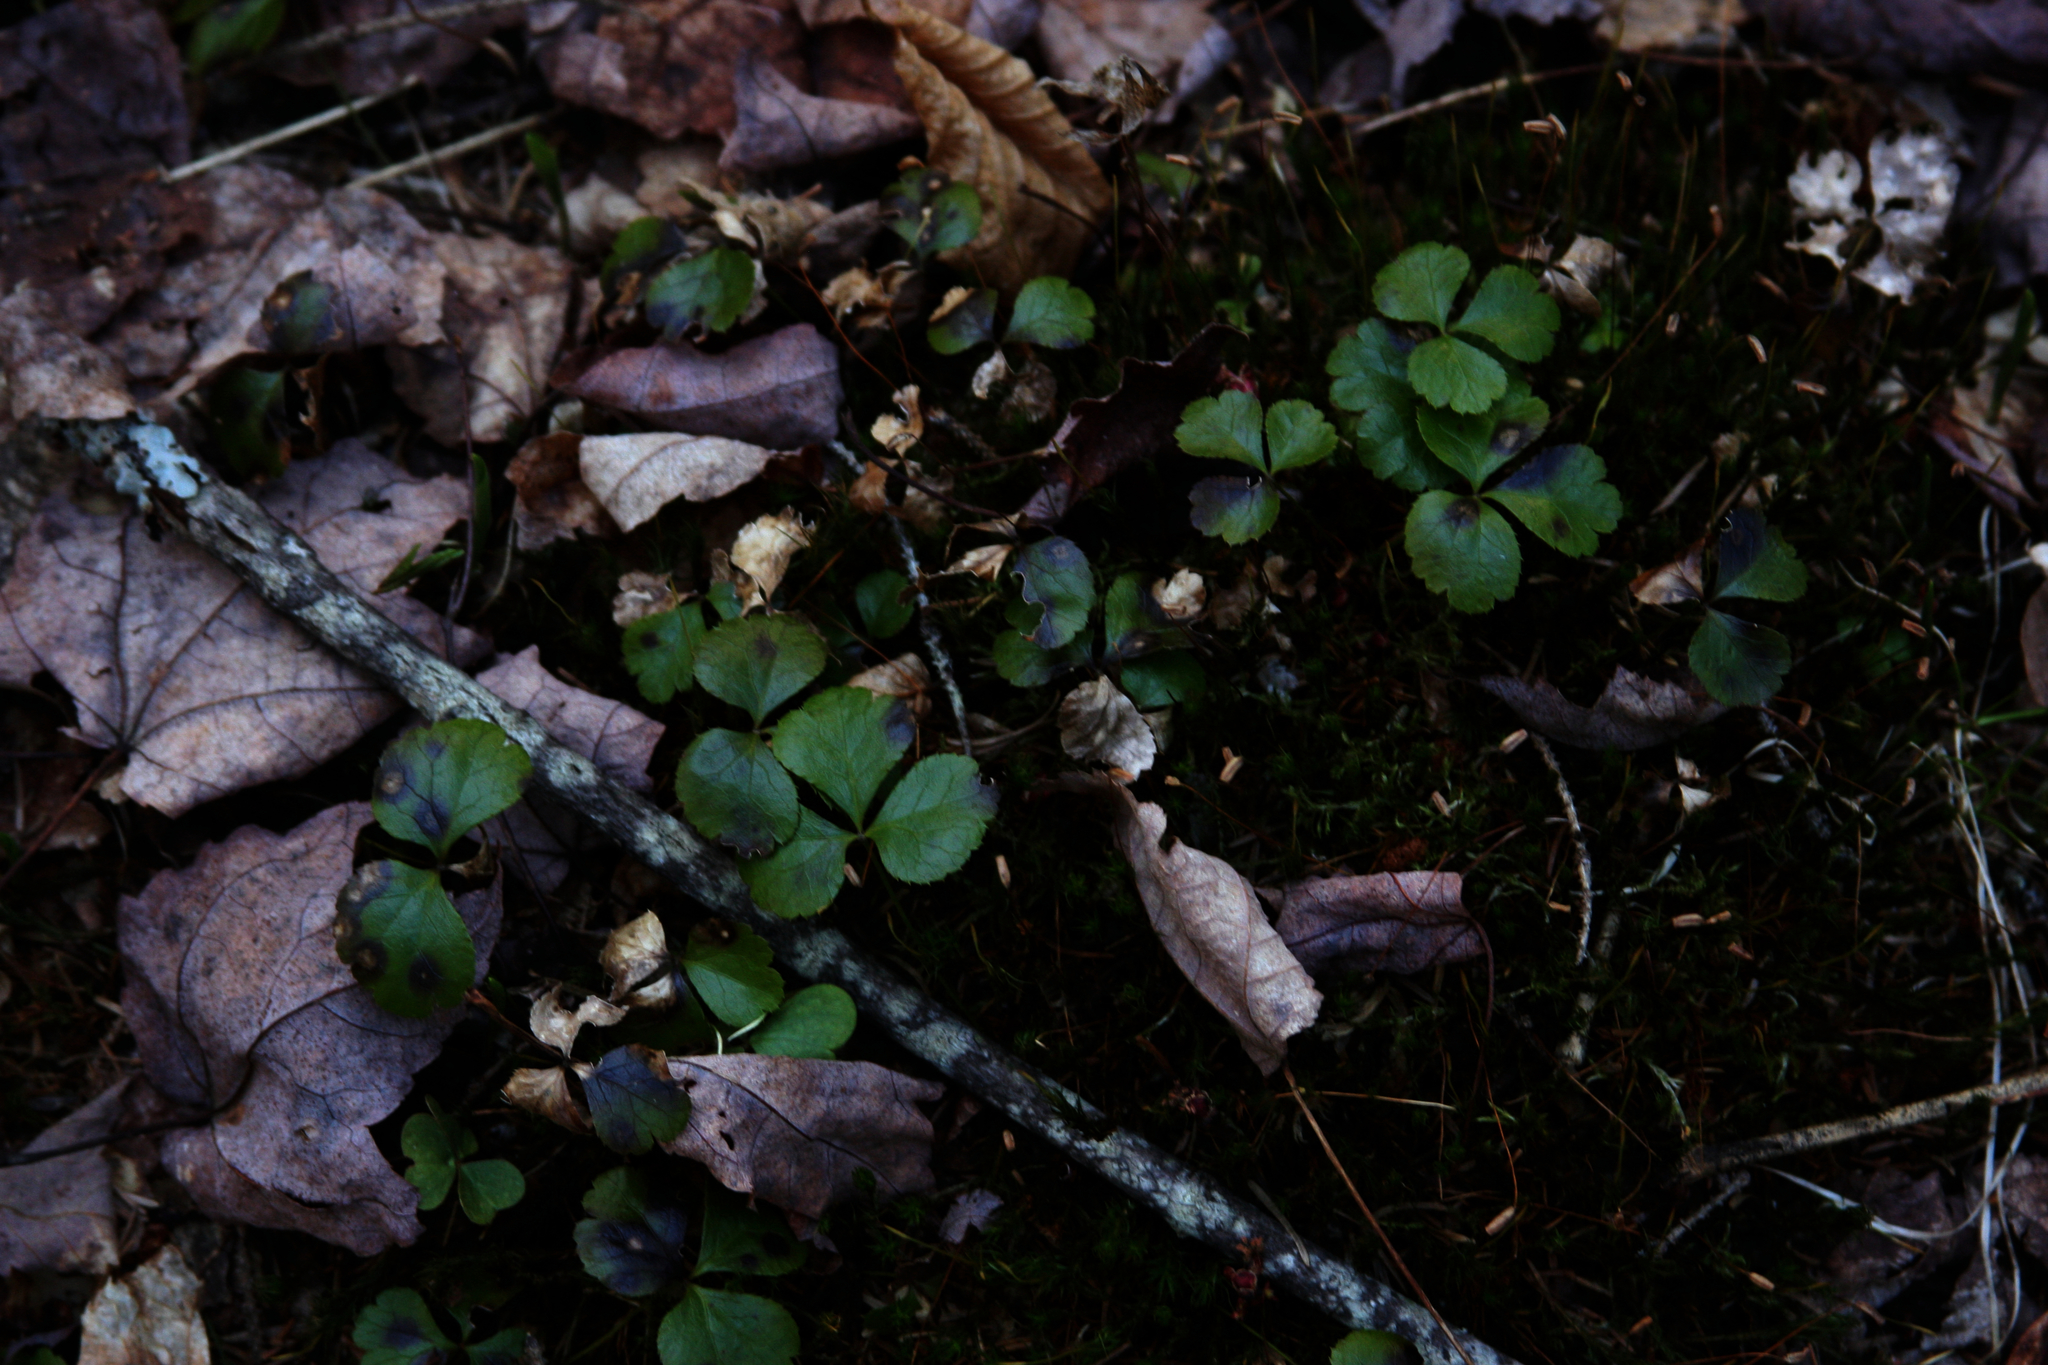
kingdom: Plantae
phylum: Tracheophyta
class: Magnoliopsida
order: Ranunculales
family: Ranunculaceae
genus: Coptis
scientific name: Coptis trifolia
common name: Canker-root
